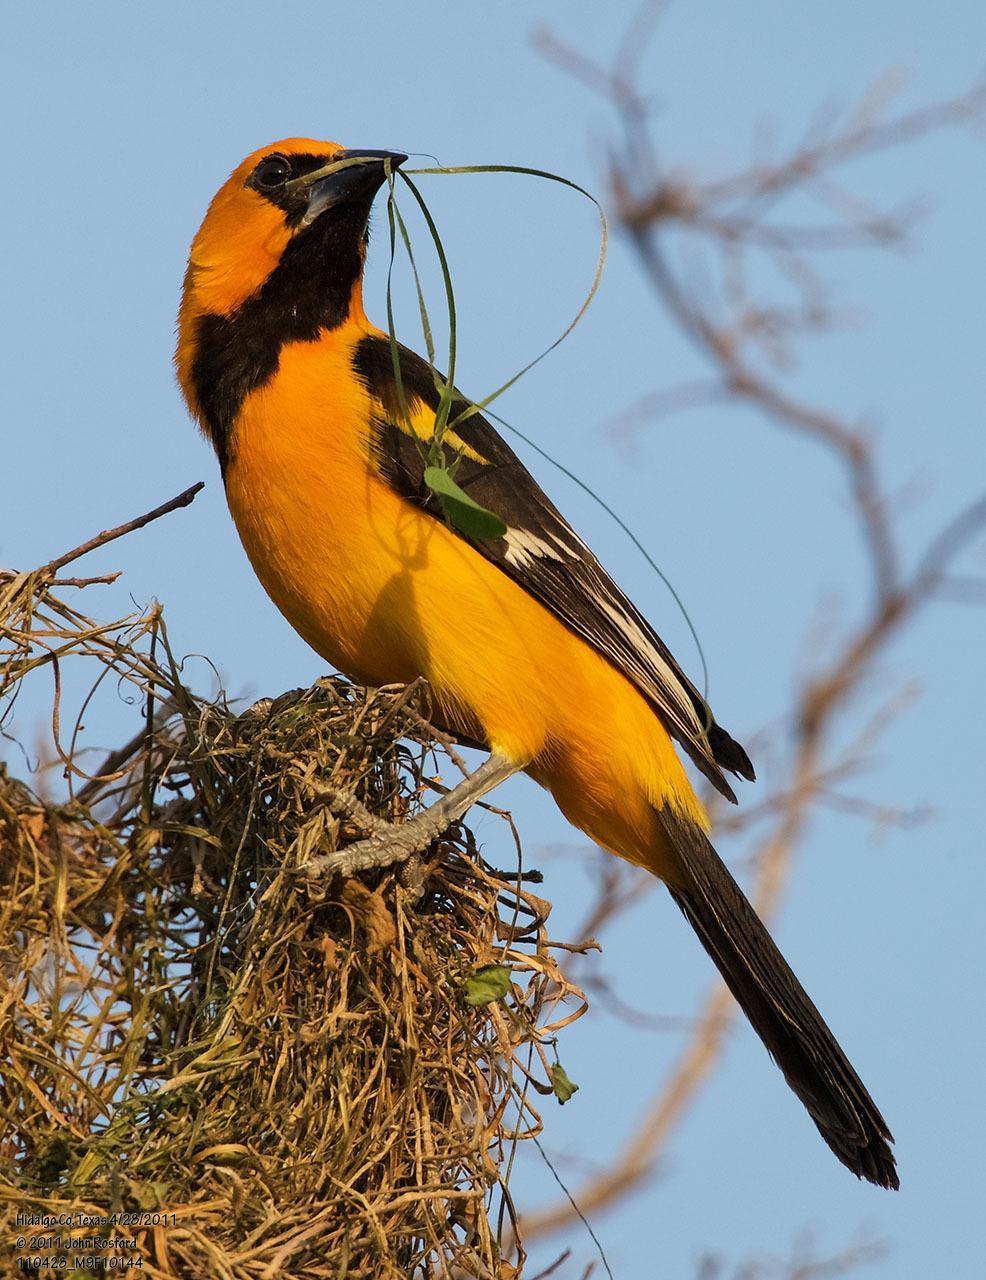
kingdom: Animalia
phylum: Chordata
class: Aves
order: Passeriformes
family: Icteridae
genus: Icterus
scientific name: Icterus gularis
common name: Altamira oriole
